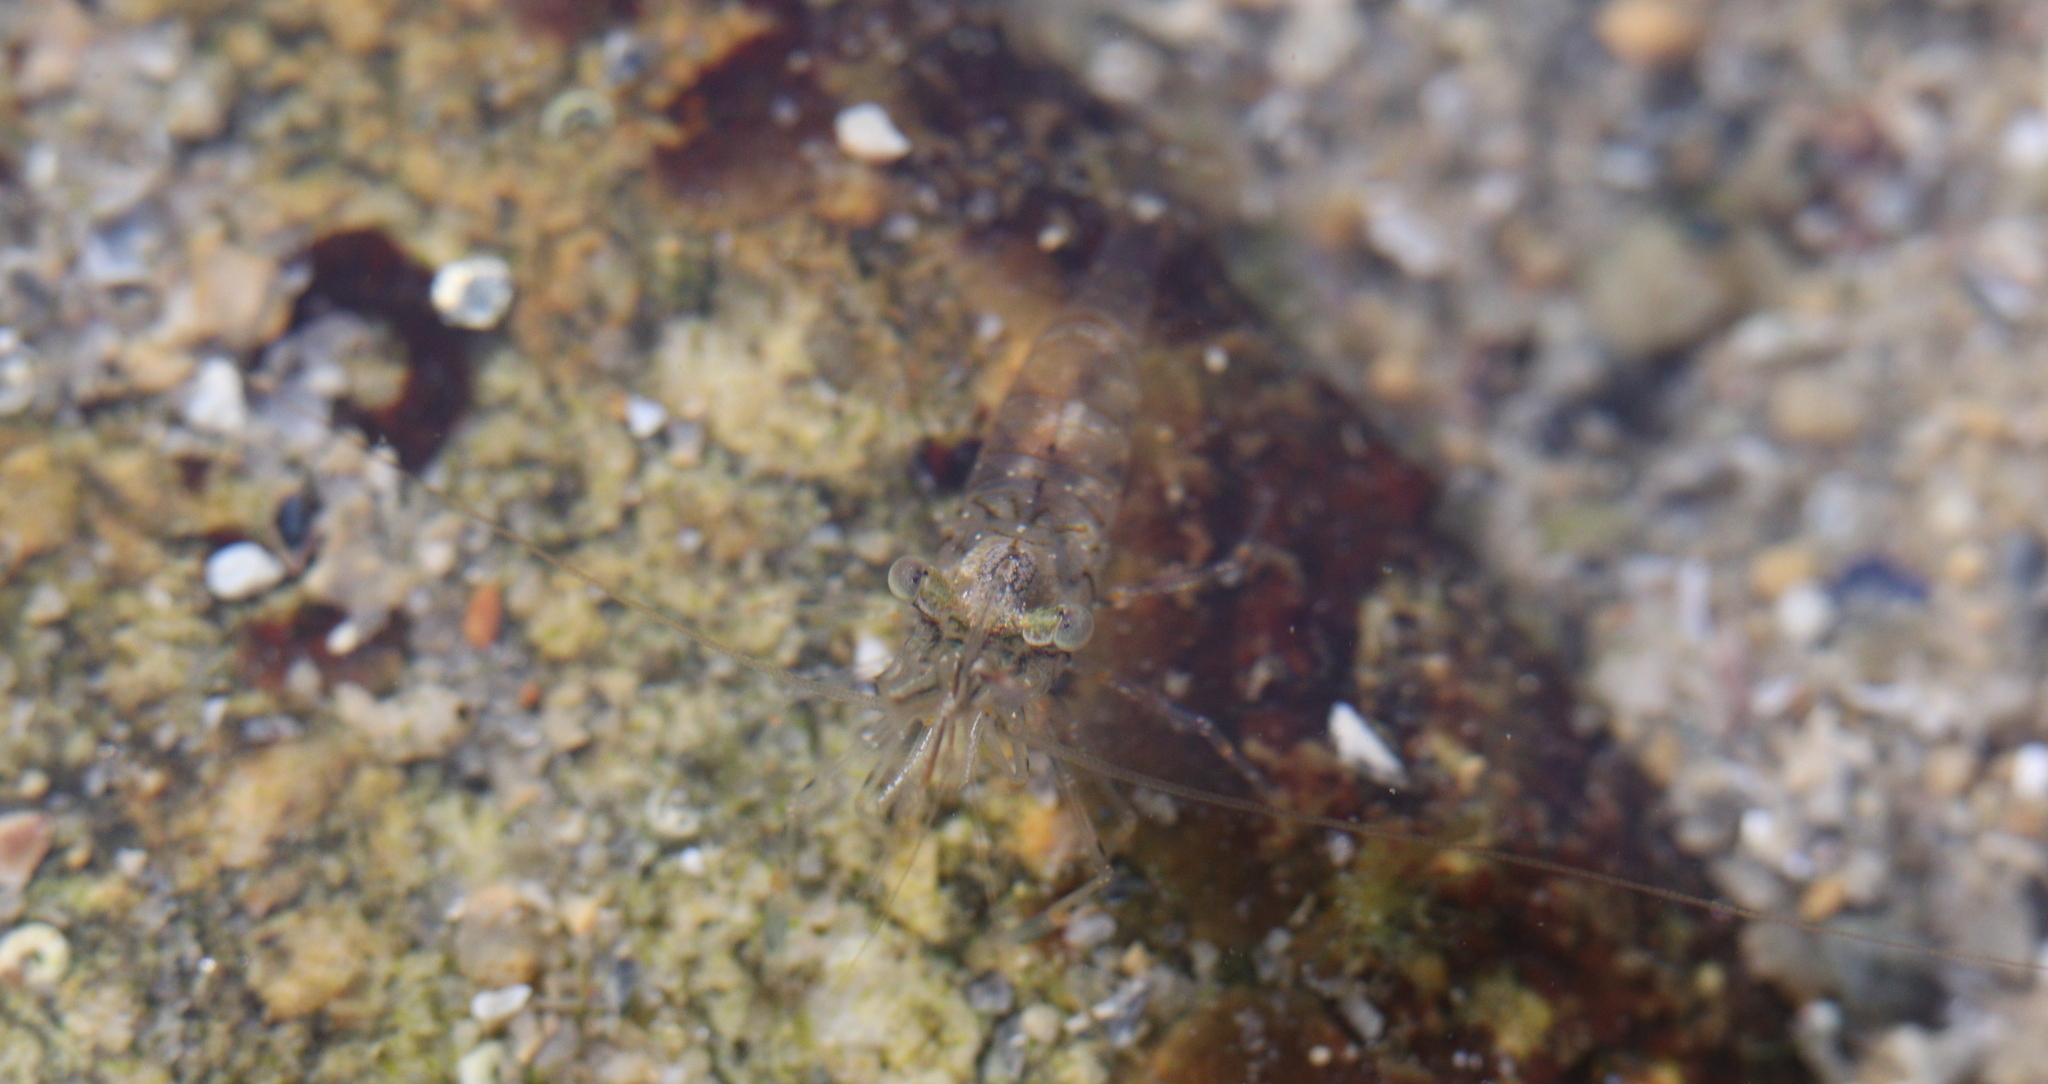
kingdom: Animalia
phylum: Arthropoda
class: Malacostraca
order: Decapoda
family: Palaemonidae
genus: Palaemon
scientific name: Palaemon elegans
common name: Grass prawm
